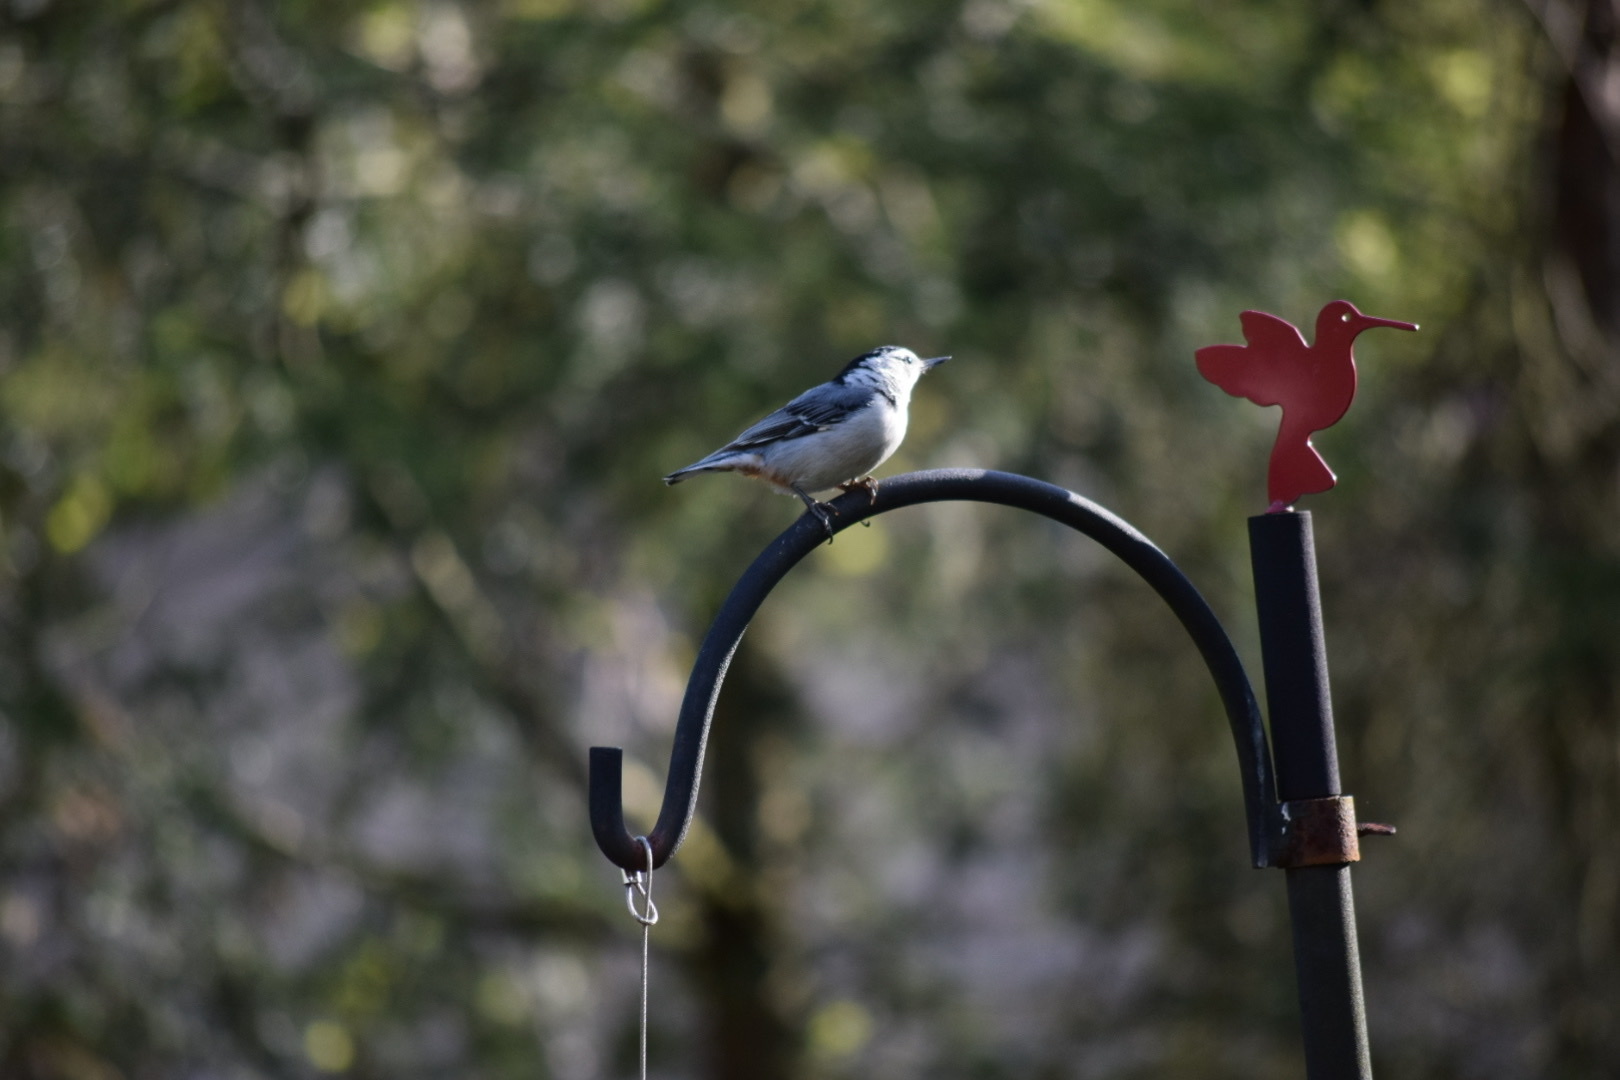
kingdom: Animalia
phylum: Chordata
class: Aves
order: Passeriformes
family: Sittidae
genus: Sitta
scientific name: Sitta carolinensis
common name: White-breasted nuthatch
